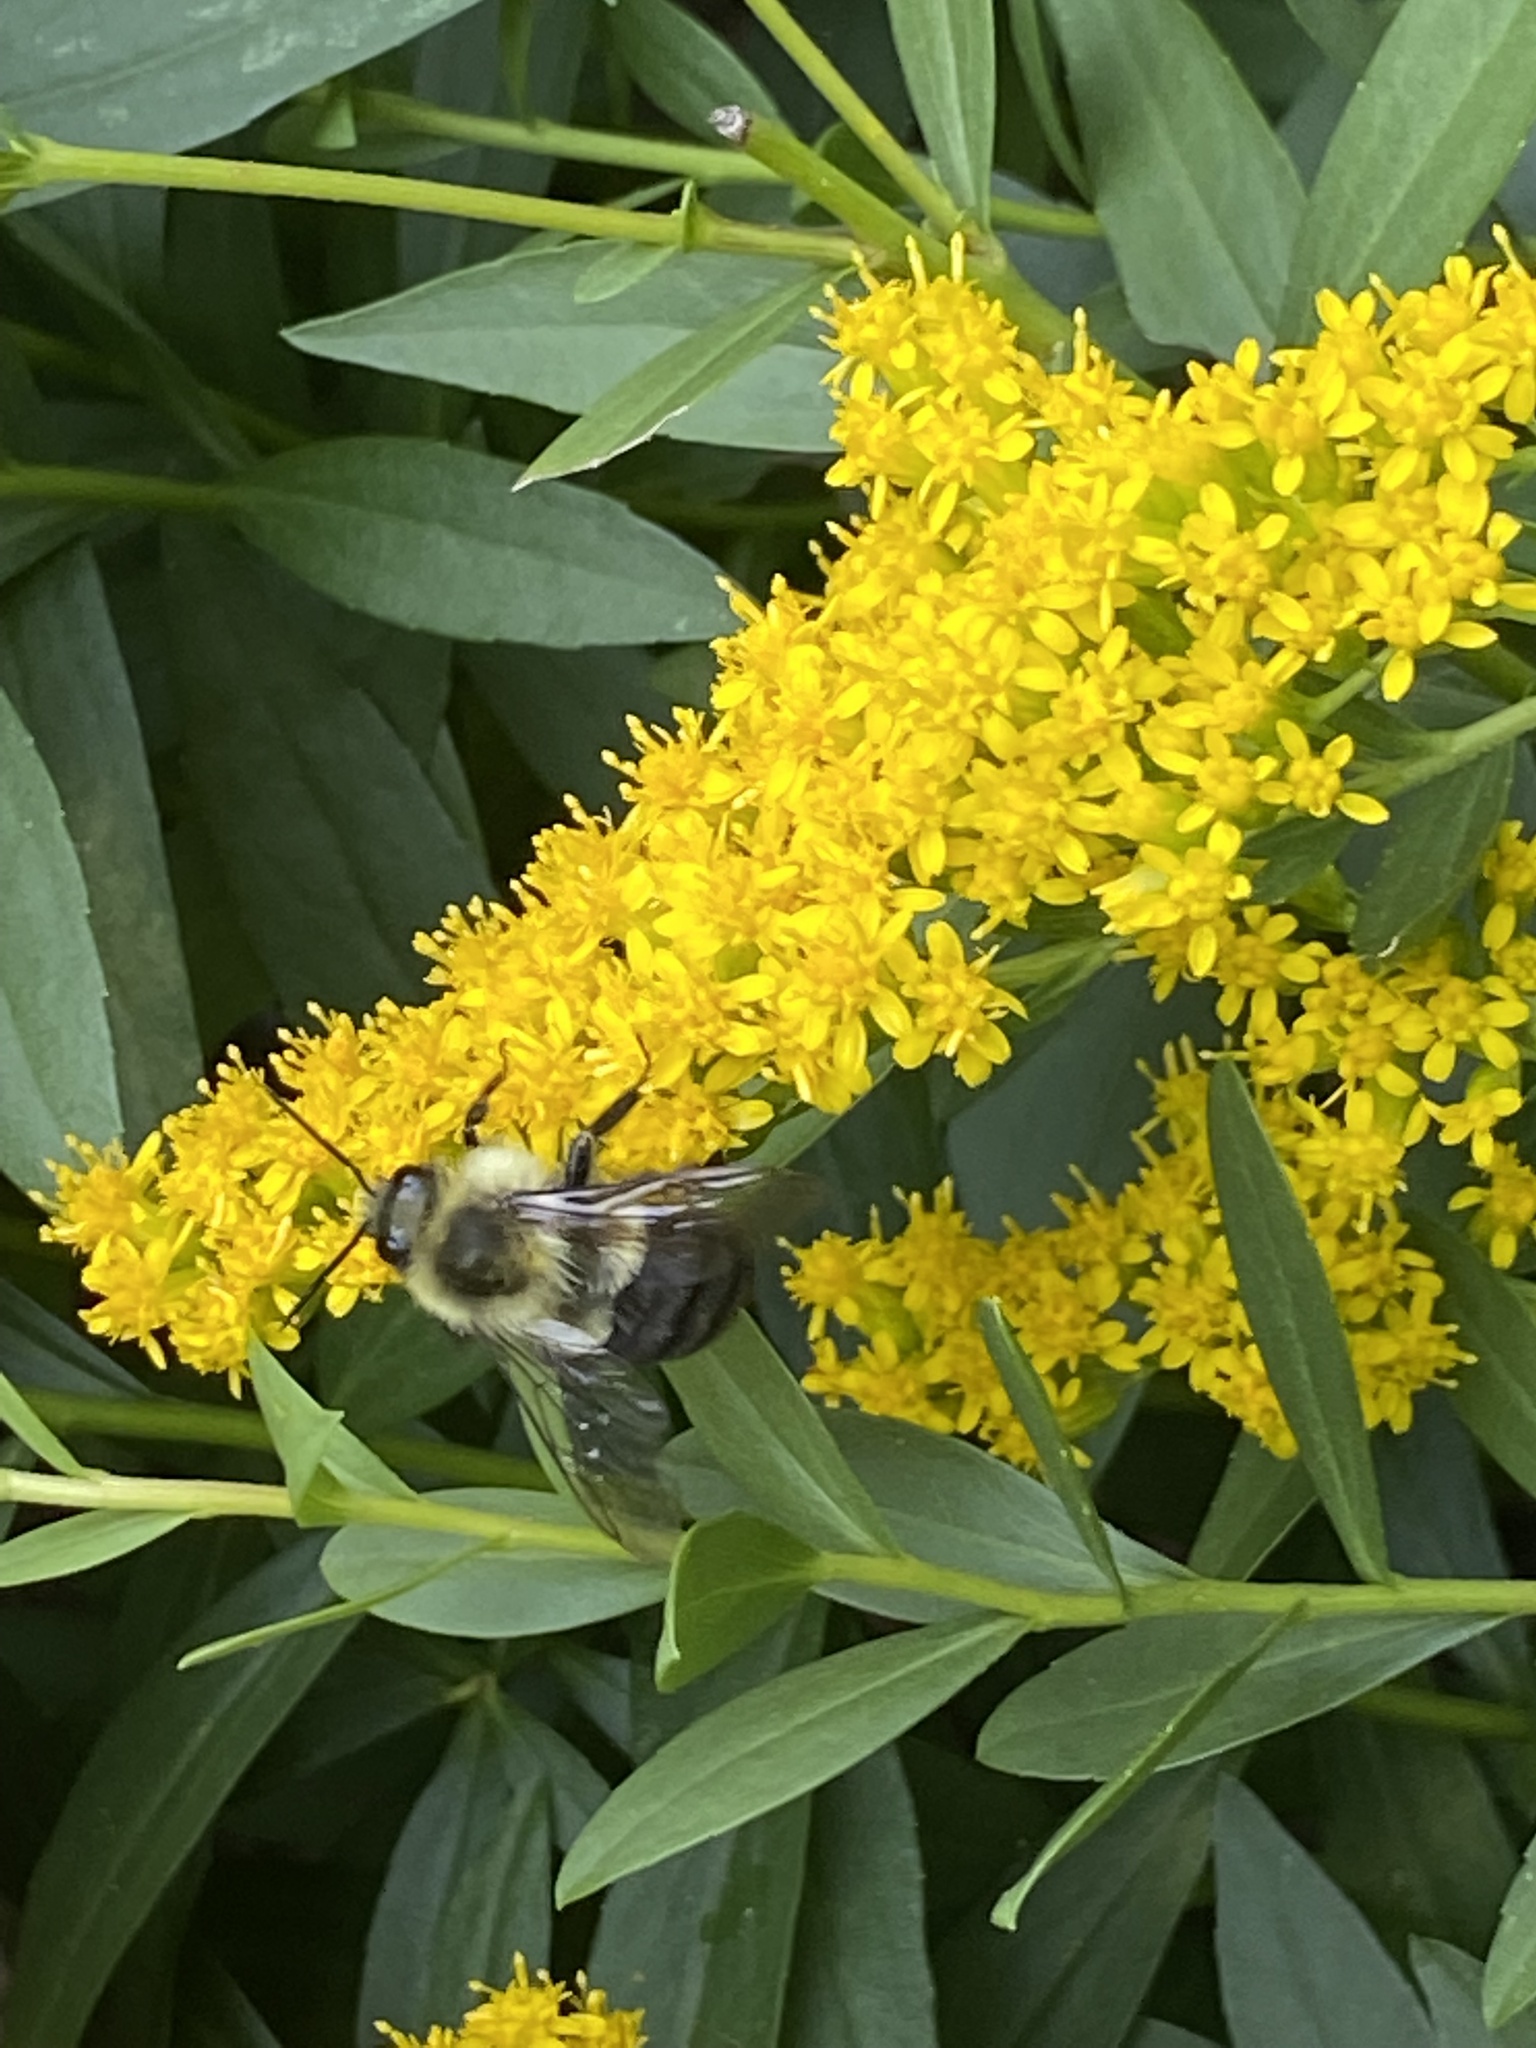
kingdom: Animalia
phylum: Arthropoda
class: Insecta
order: Hymenoptera
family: Apidae
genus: Bombus
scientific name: Bombus impatiens
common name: Common eastern bumble bee
